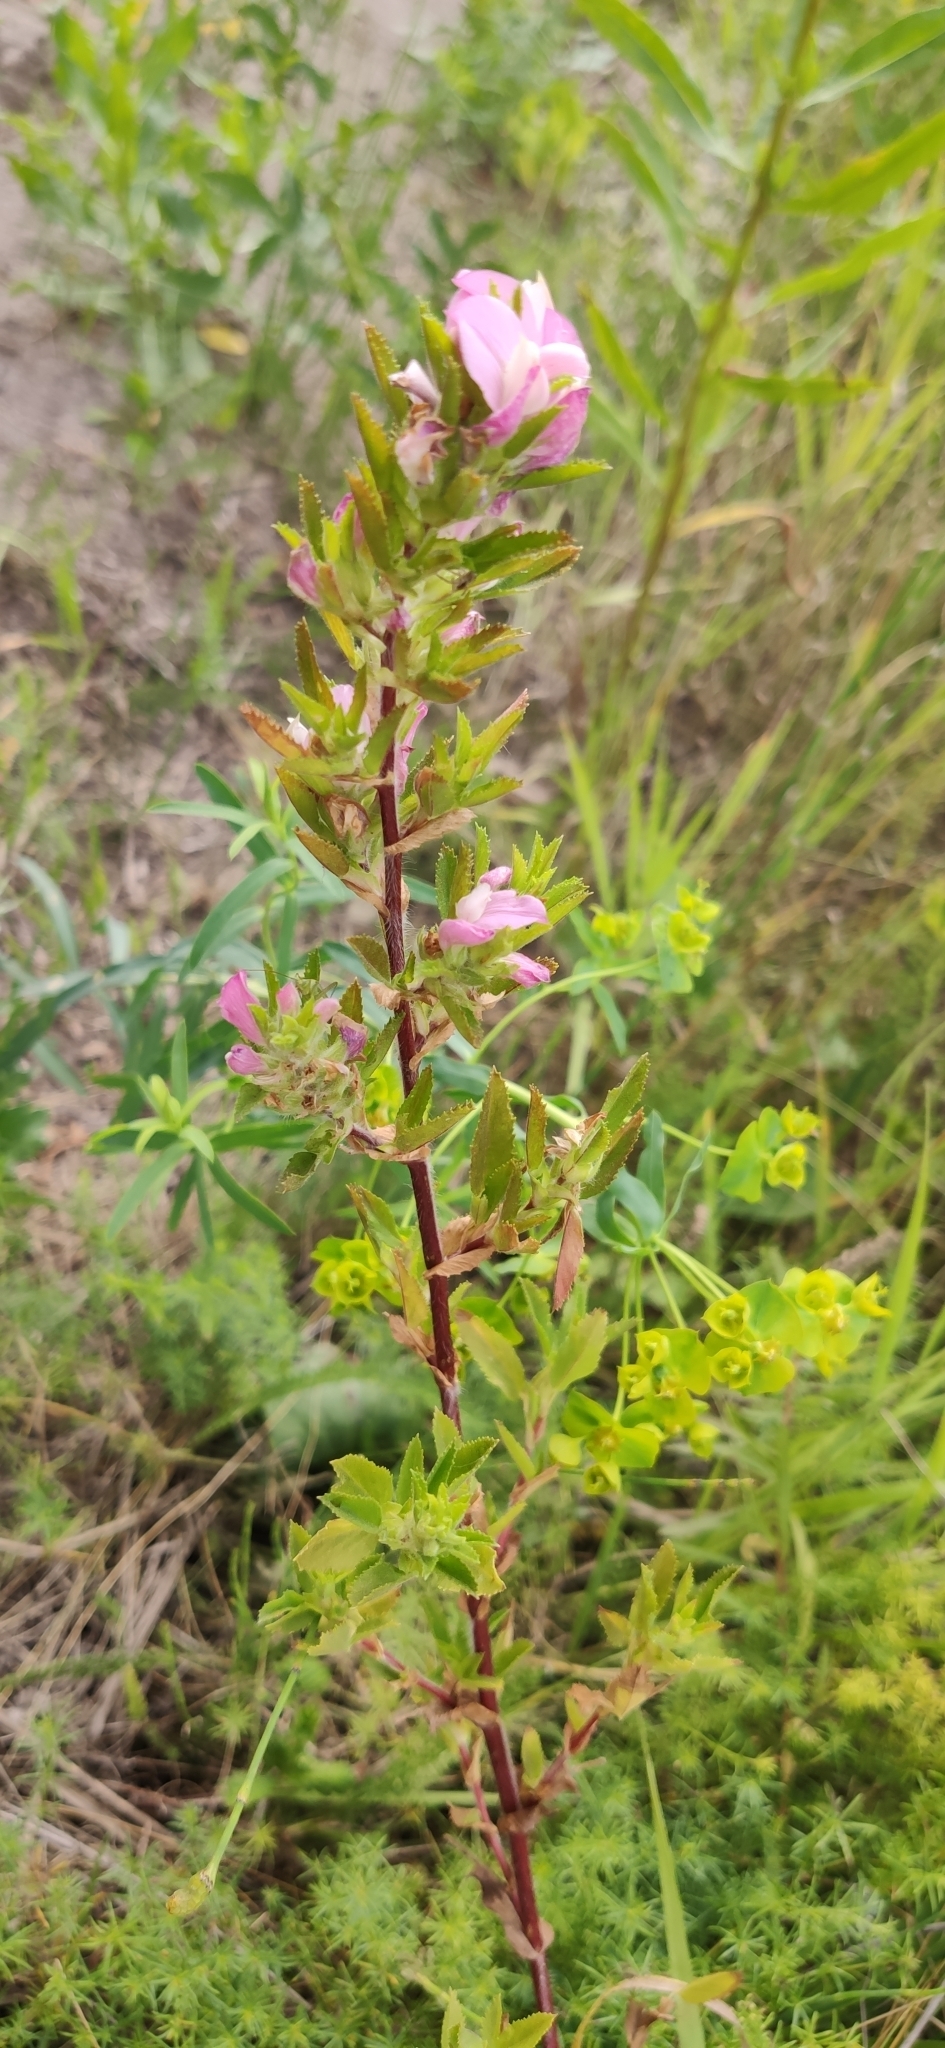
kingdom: Plantae
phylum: Tracheophyta
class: Magnoliopsida
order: Fabales
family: Fabaceae
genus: Ononis
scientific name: Ononis arvensis
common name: Field restharrow
